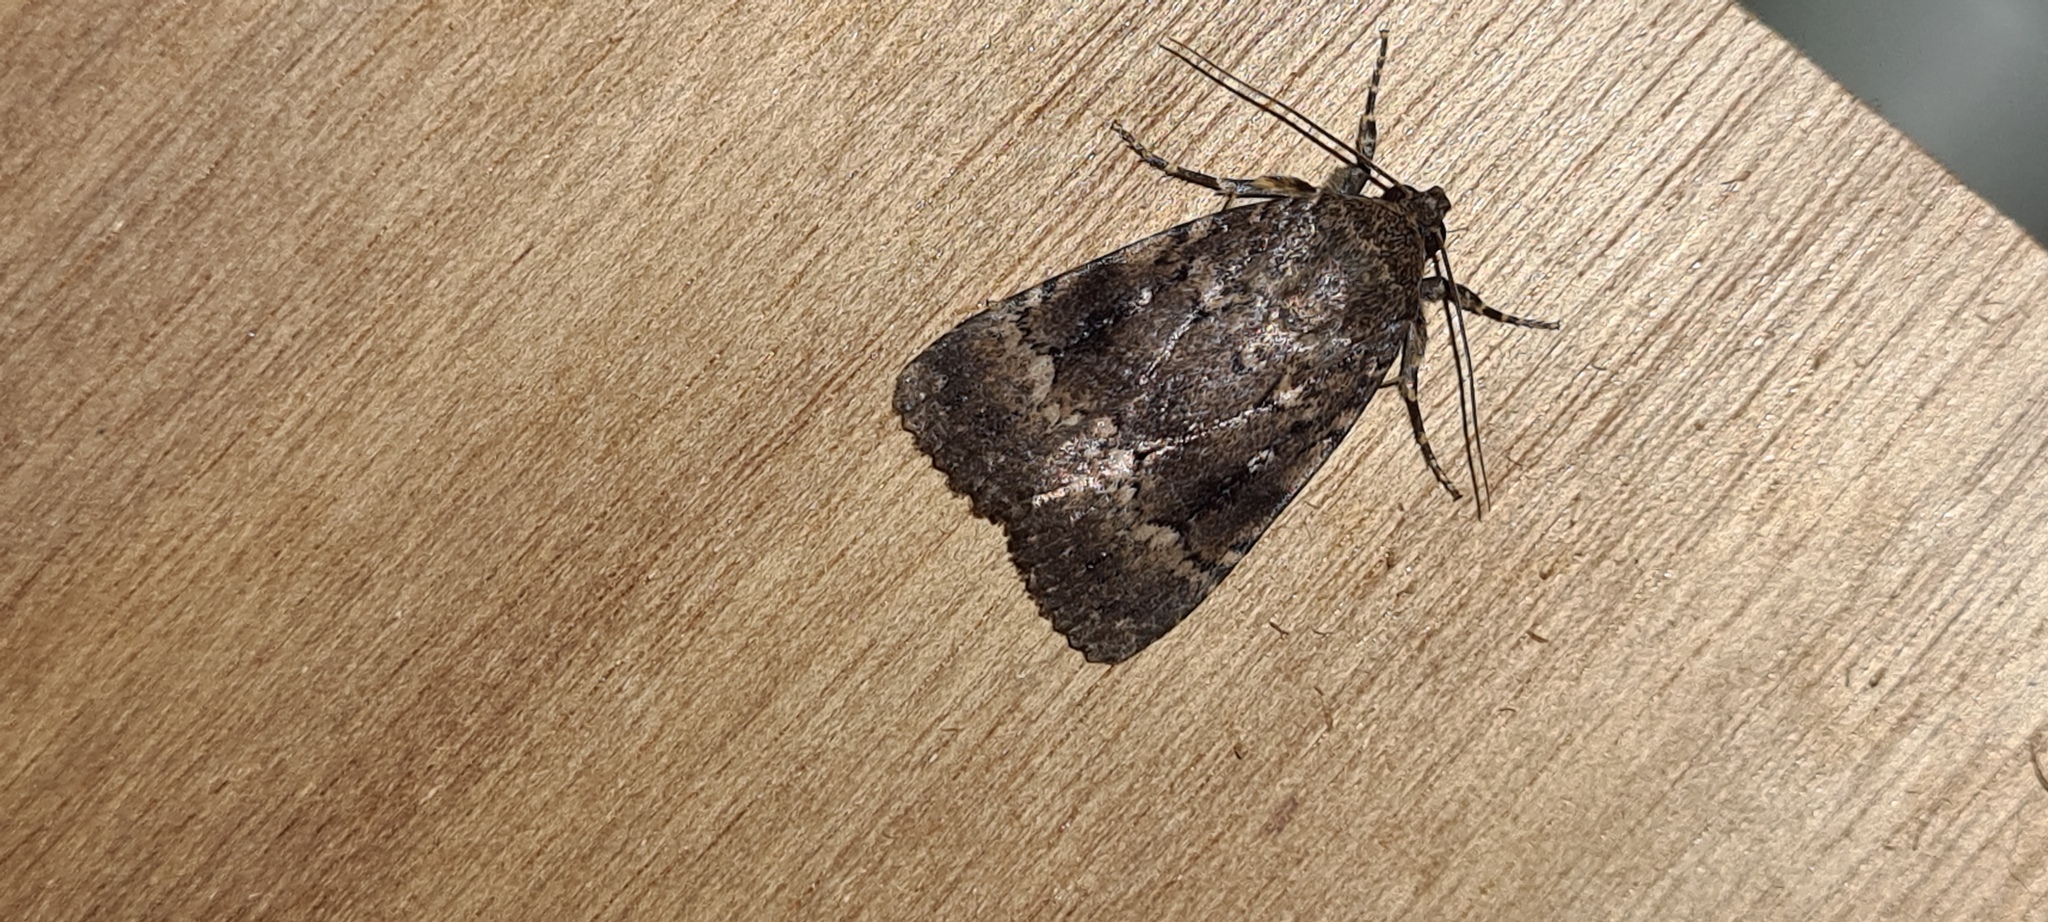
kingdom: Animalia
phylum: Arthropoda
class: Insecta
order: Lepidoptera
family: Noctuidae
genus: Amphipyra
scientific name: Amphipyra pyramidea
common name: Copper underwing
